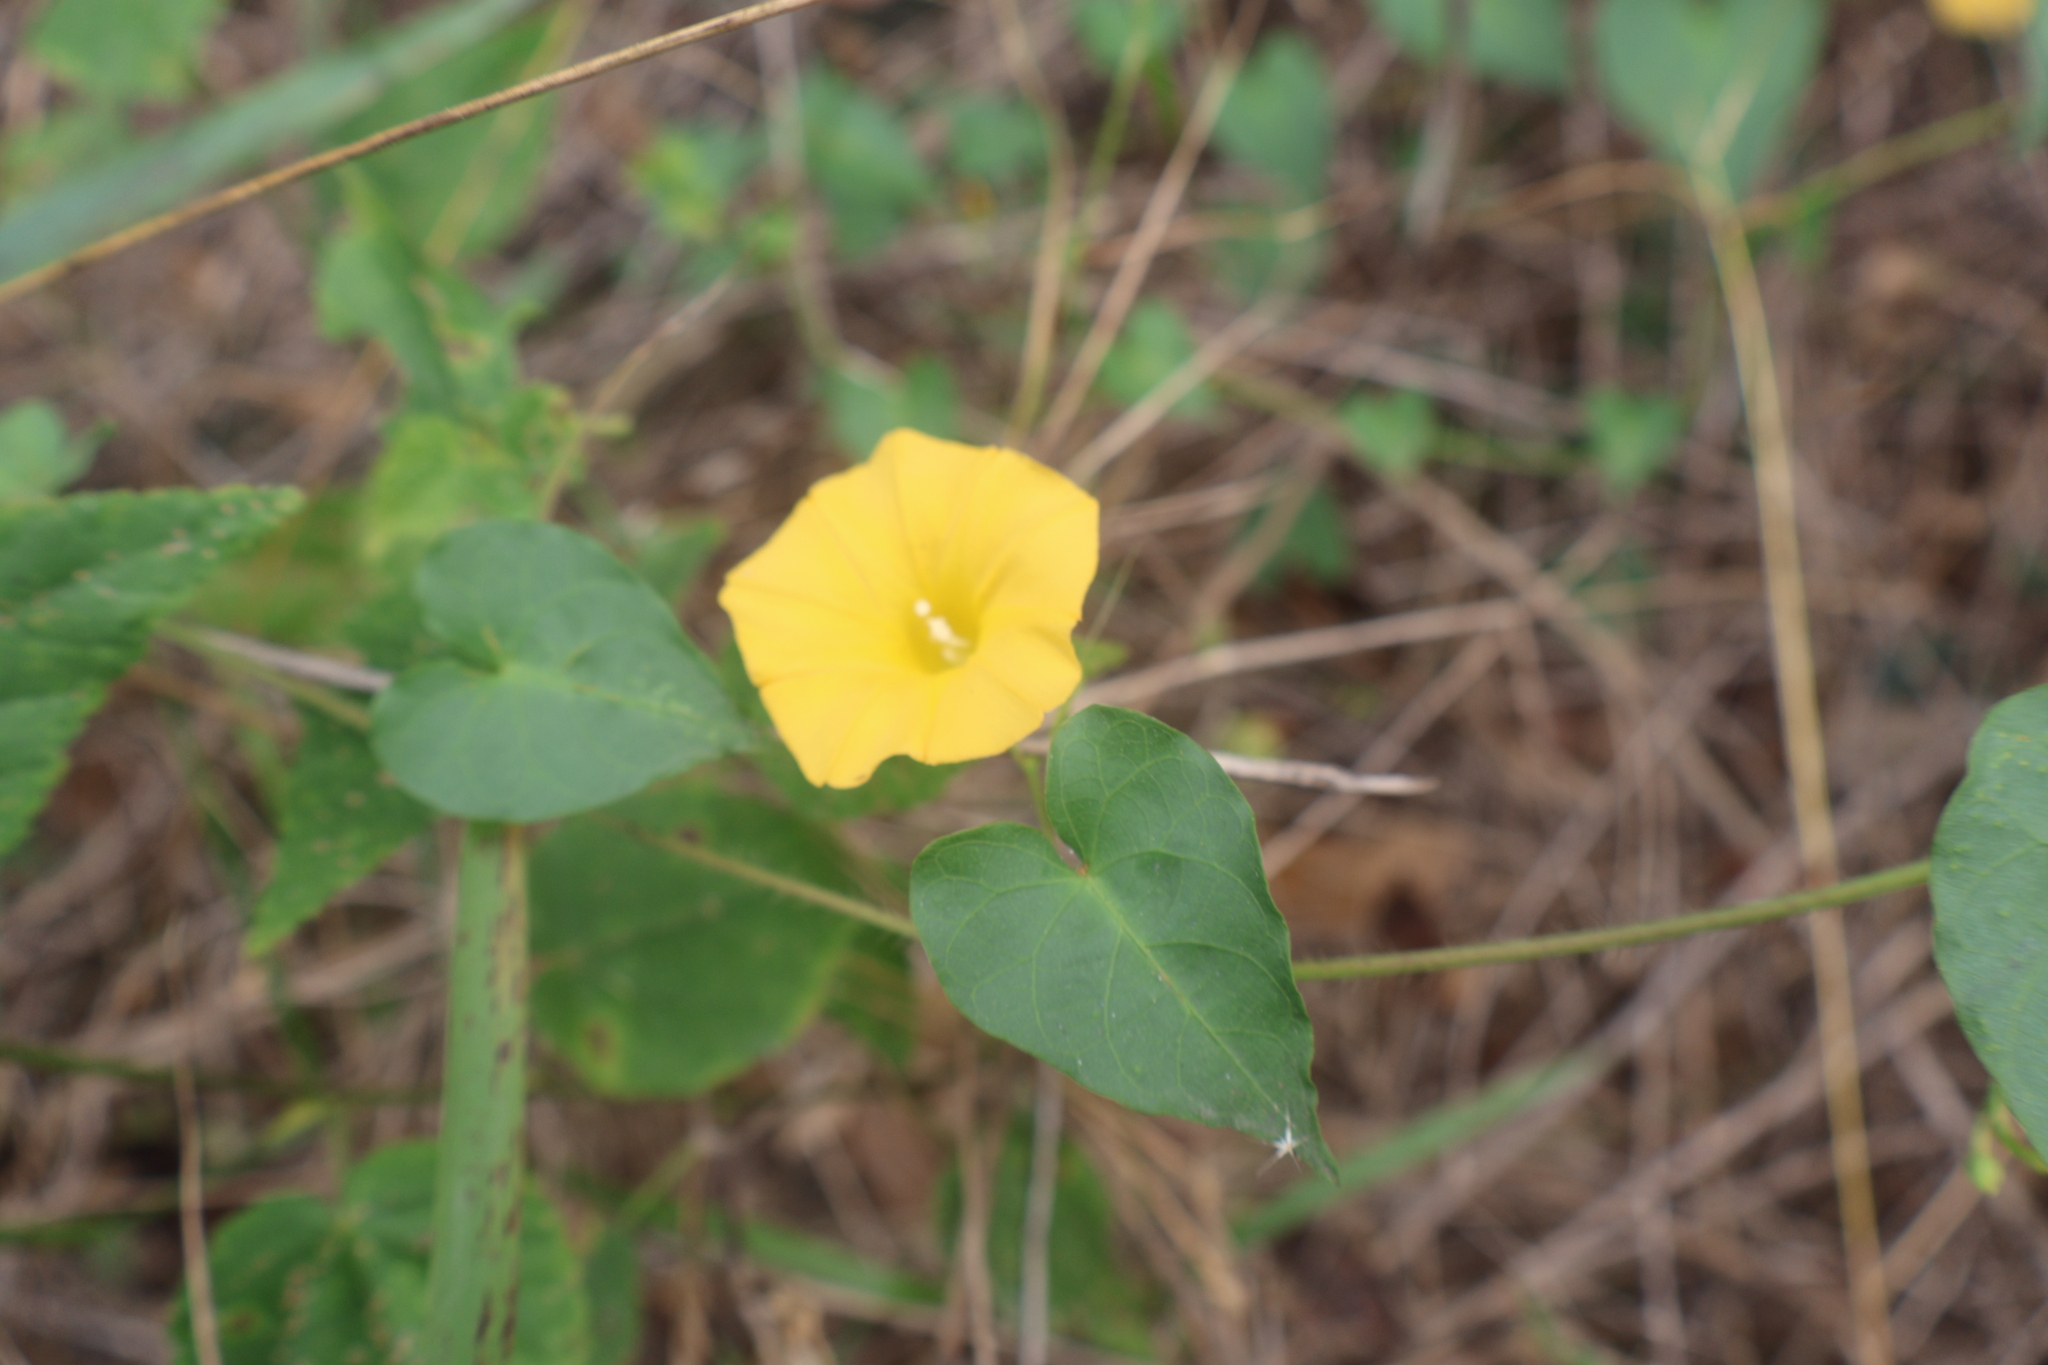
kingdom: Plantae
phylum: Tracheophyta
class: Magnoliopsida
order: Solanales
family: Convolvulaceae
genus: Ipomoea
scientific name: Ipomoea microsepala
